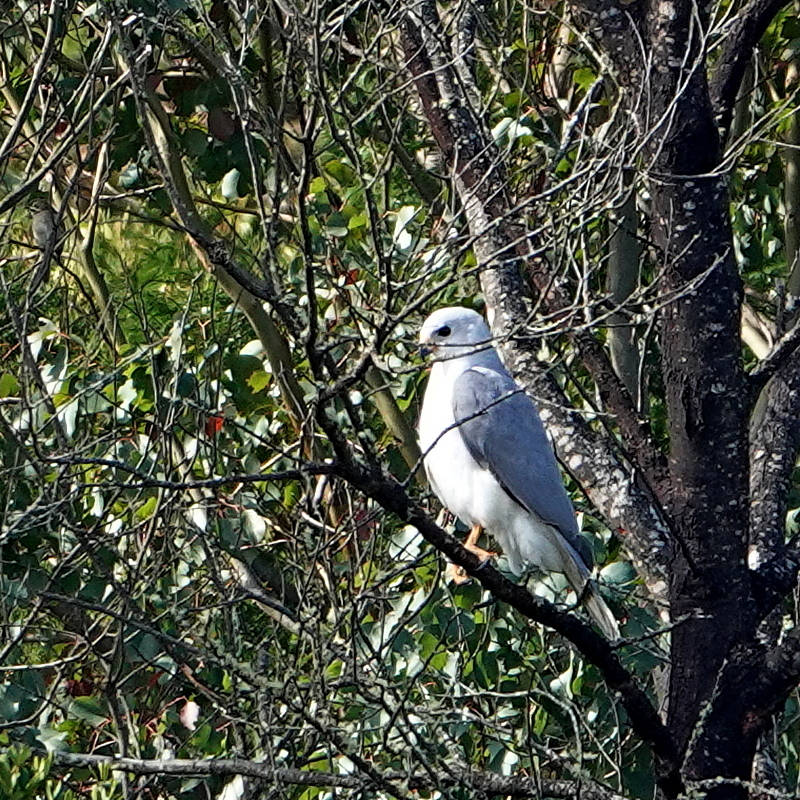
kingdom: Animalia
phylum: Chordata
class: Aves
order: Accipitriformes
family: Accipitridae
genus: Accipiter
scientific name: Accipiter novaehollandiae
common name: Grey goshawk
